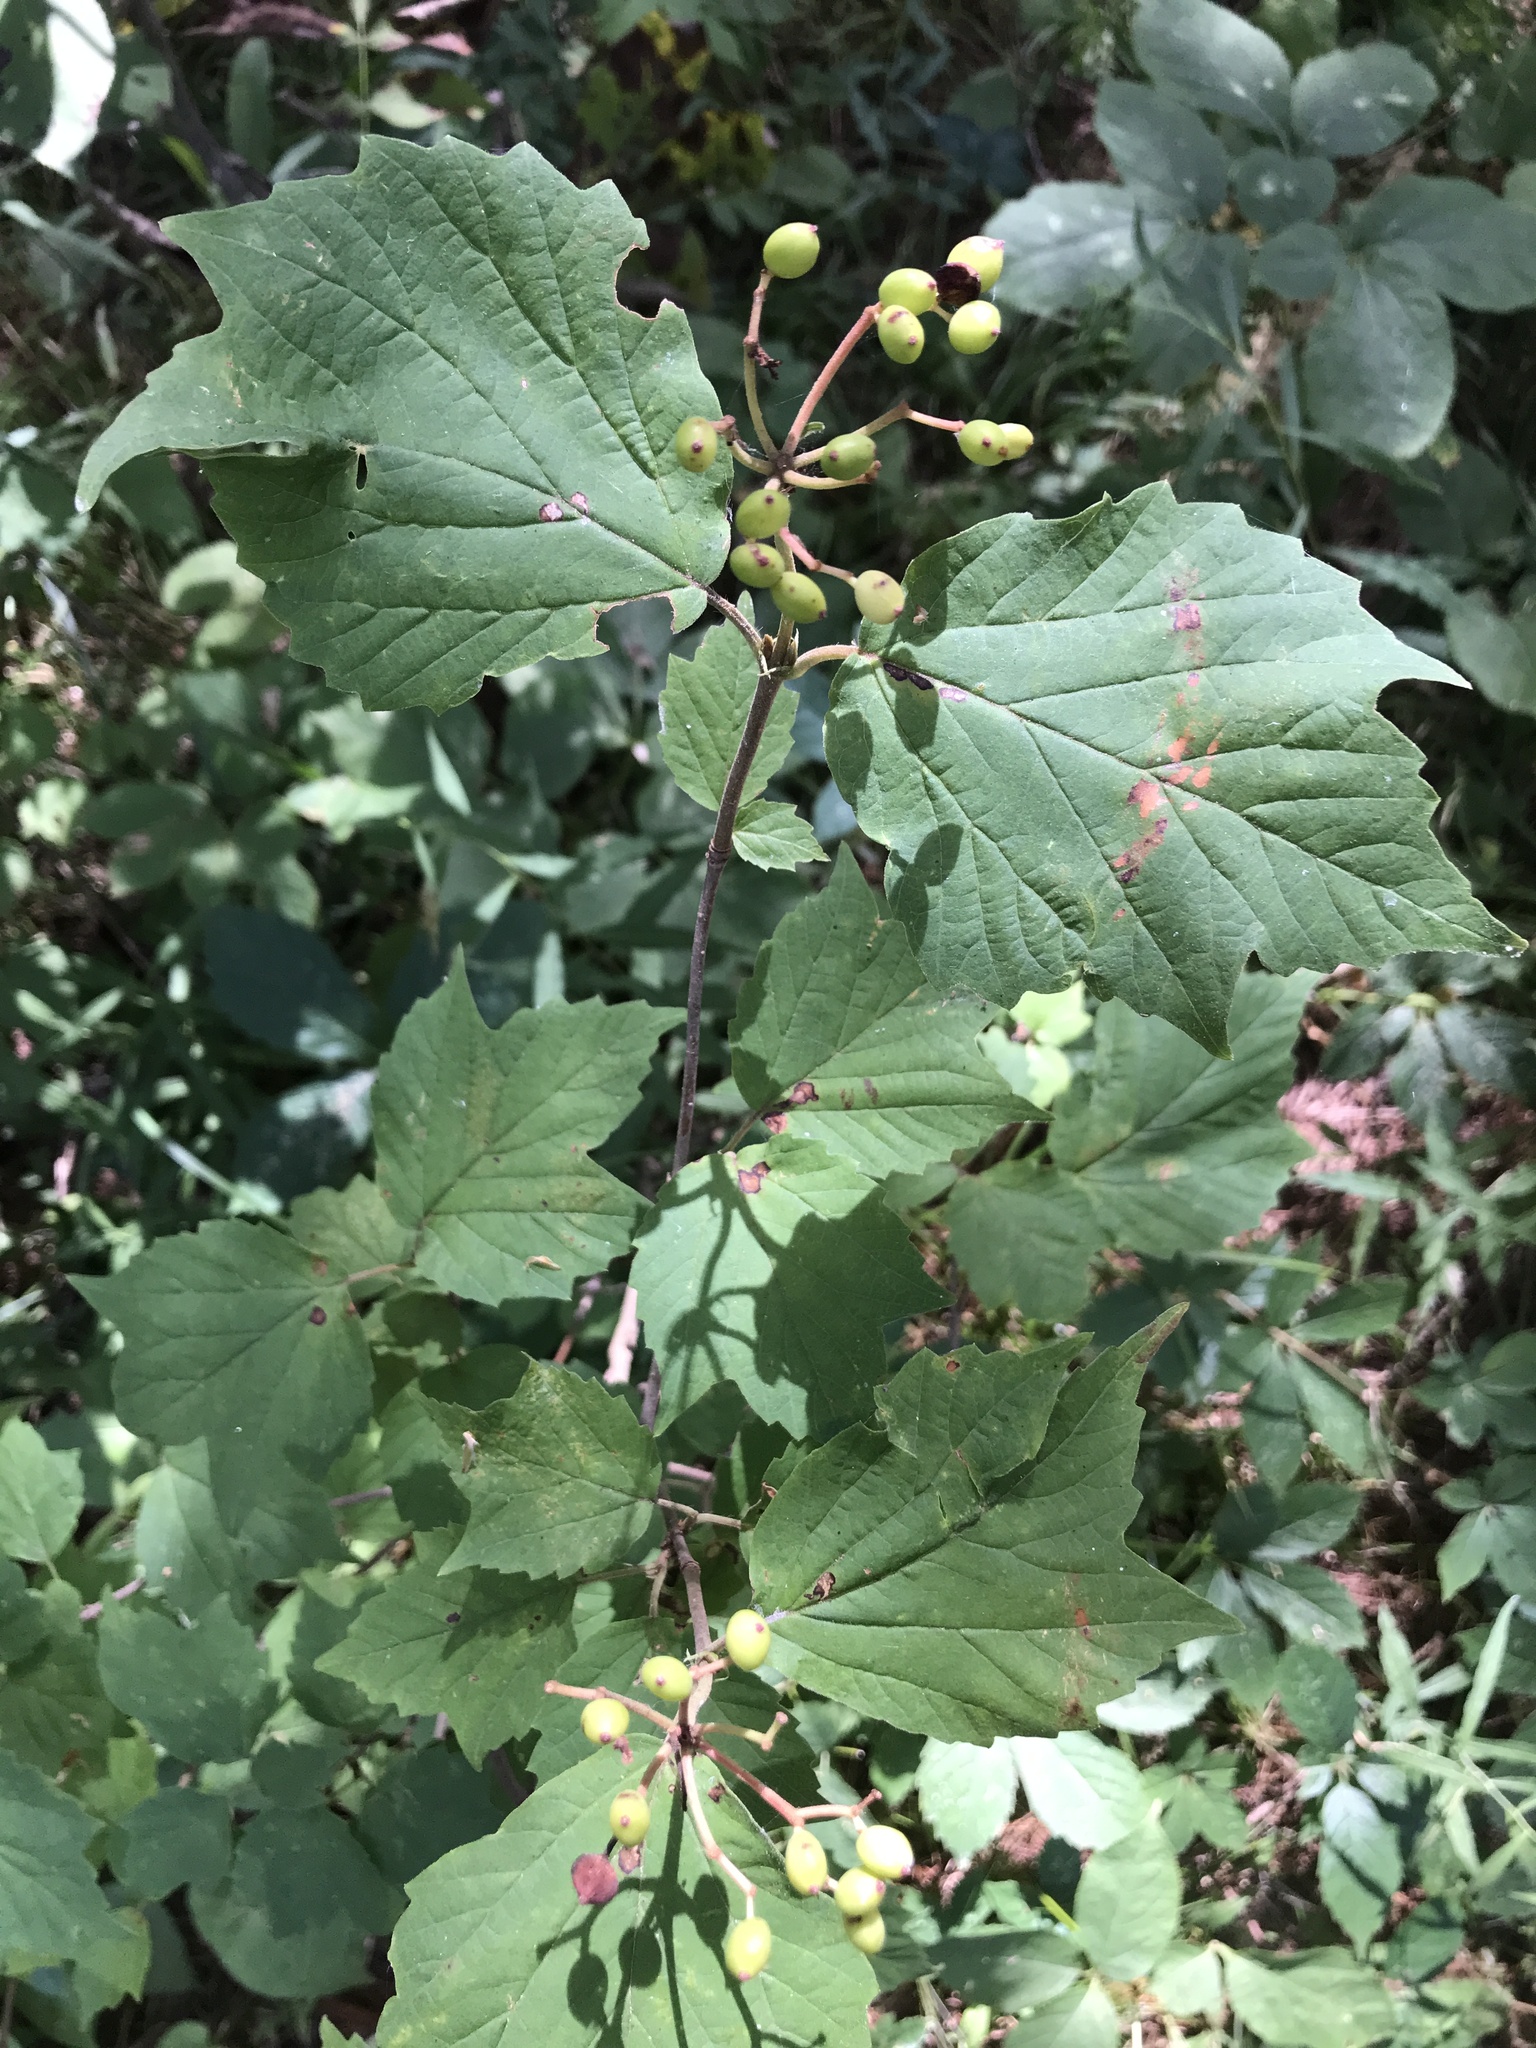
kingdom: Plantae
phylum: Tracheophyta
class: Magnoliopsida
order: Dipsacales
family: Viburnaceae
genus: Viburnum
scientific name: Viburnum acerifolium
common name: Dockmackie
